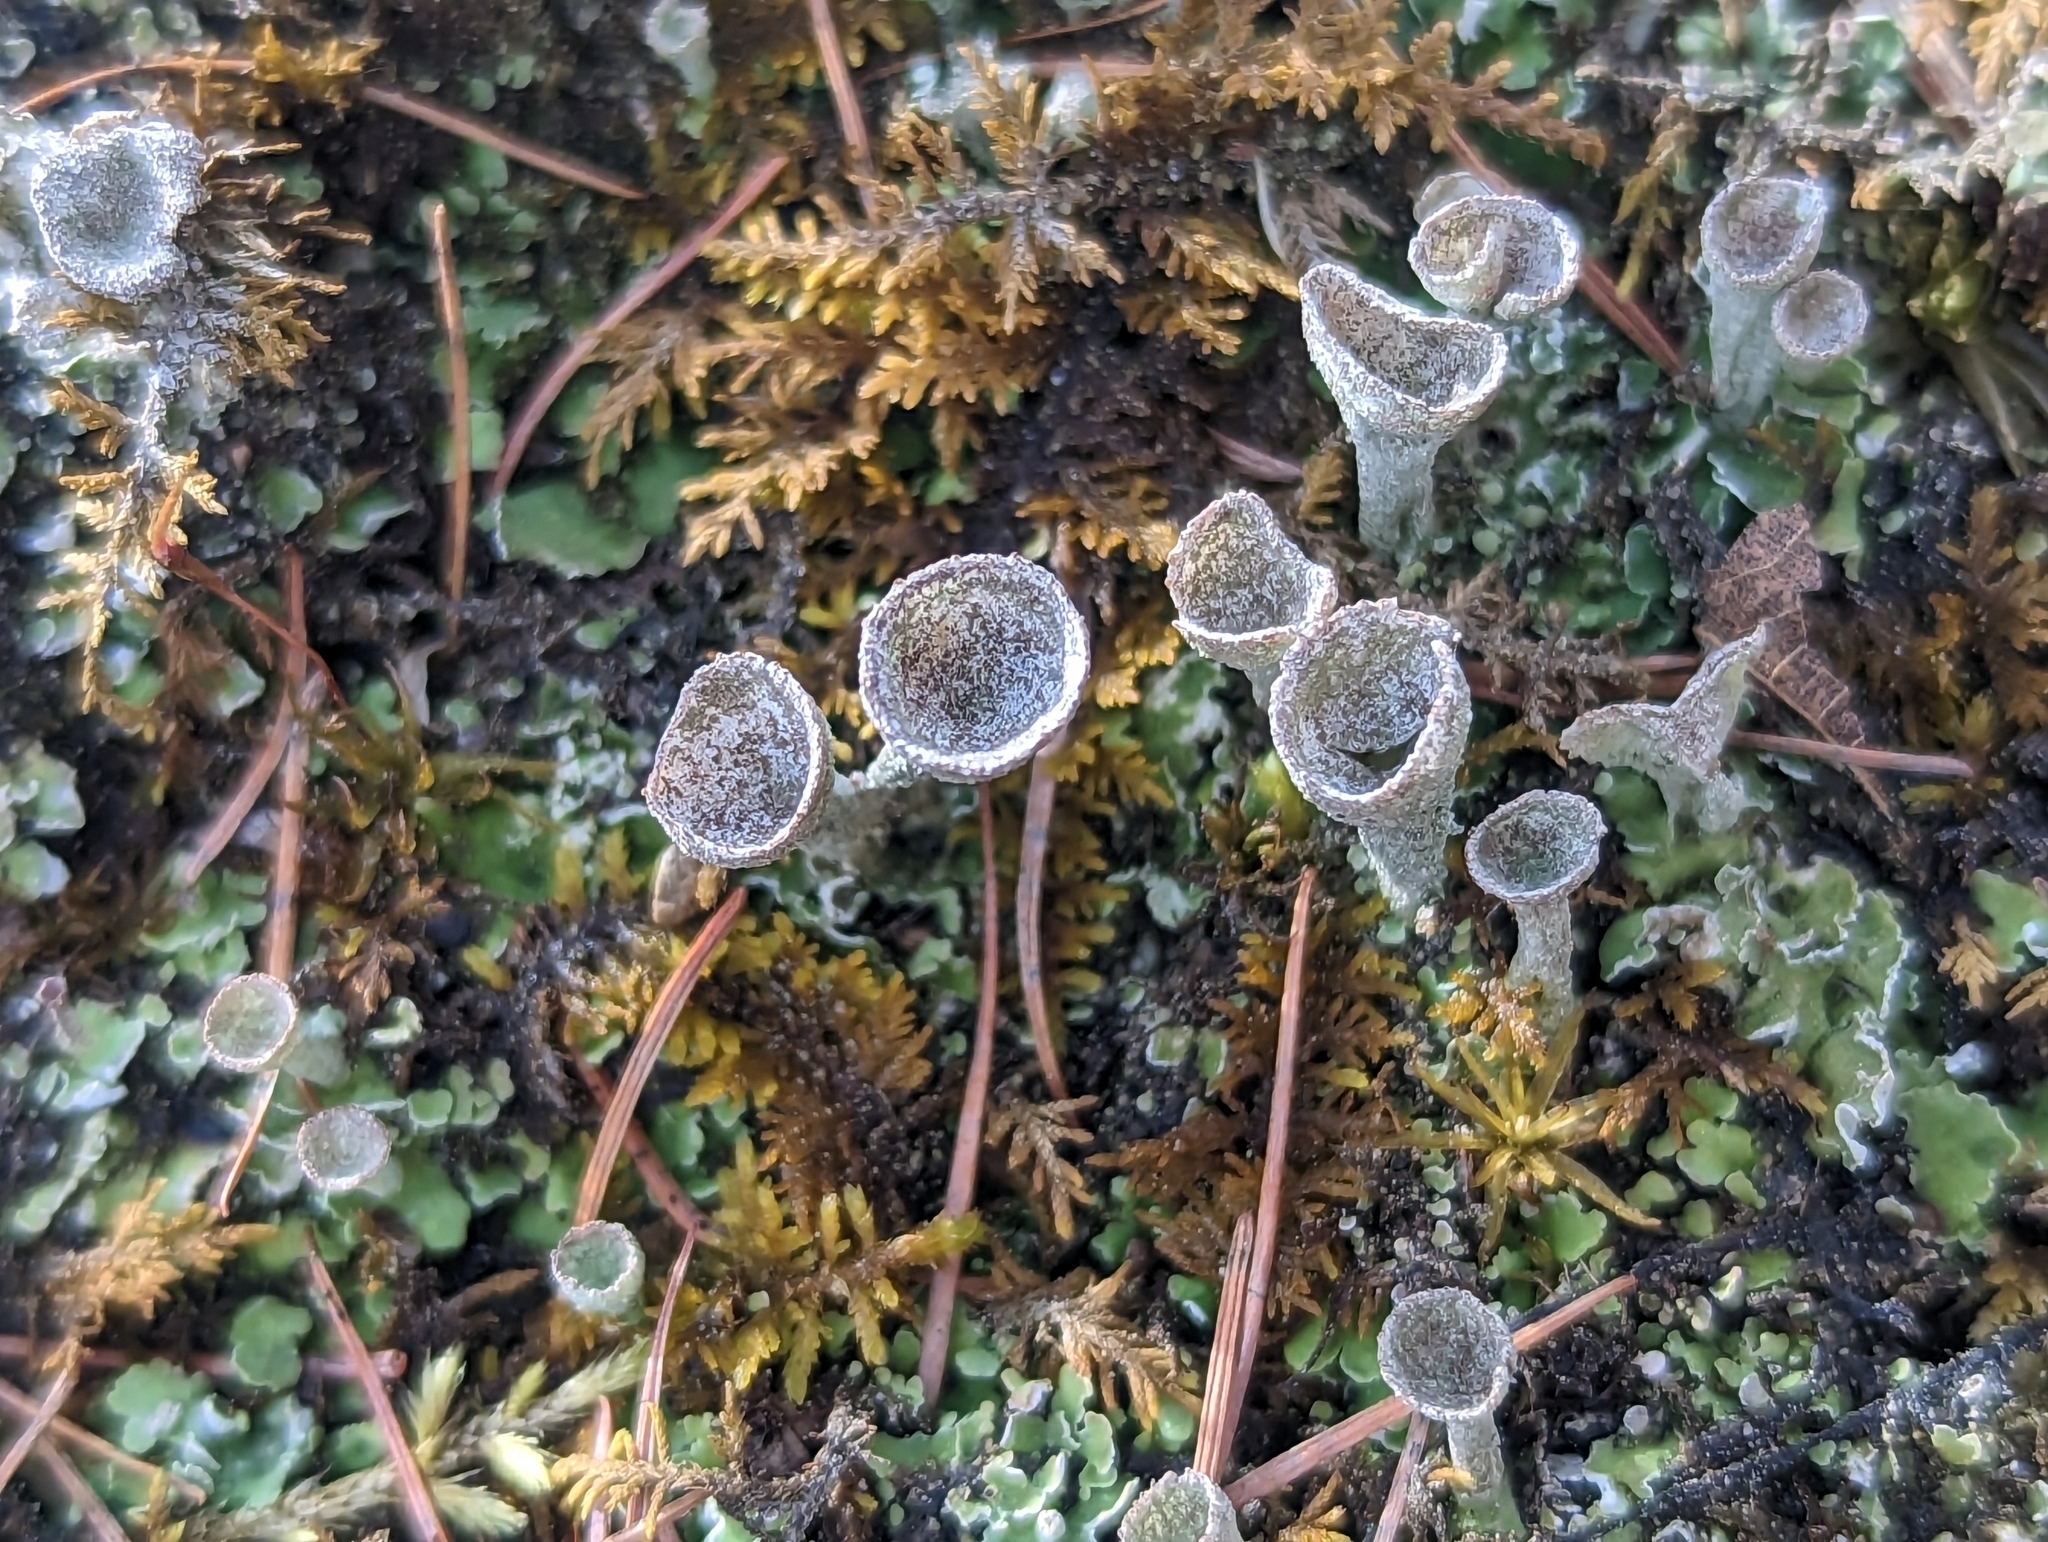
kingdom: Fungi
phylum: Ascomycota
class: Lecanoromycetes
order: Lecanorales
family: Cladoniaceae
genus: Cladonia
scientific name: Cladonia fimbriata
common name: Powdered trumpet lichen
